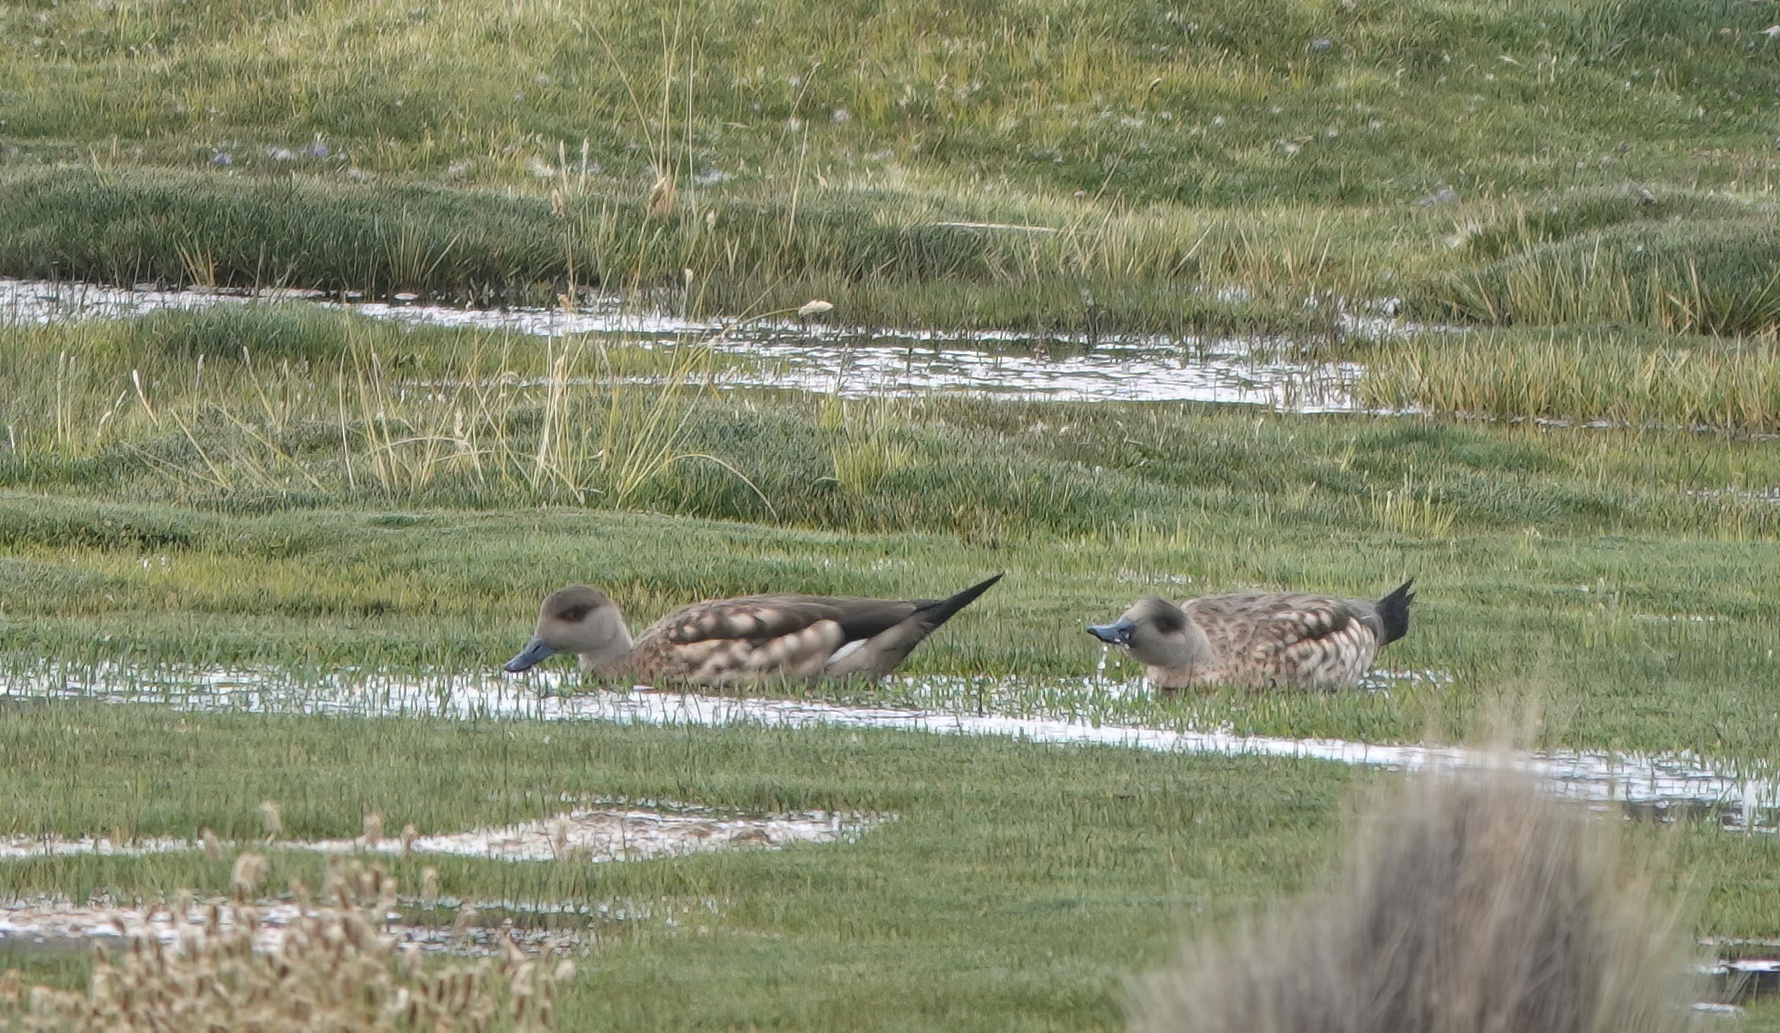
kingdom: Animalia
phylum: Chordata
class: Aves
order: Anseriformes
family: Anatidae
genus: Lophonetta
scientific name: Lophonetta specularioides
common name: Crested duck
